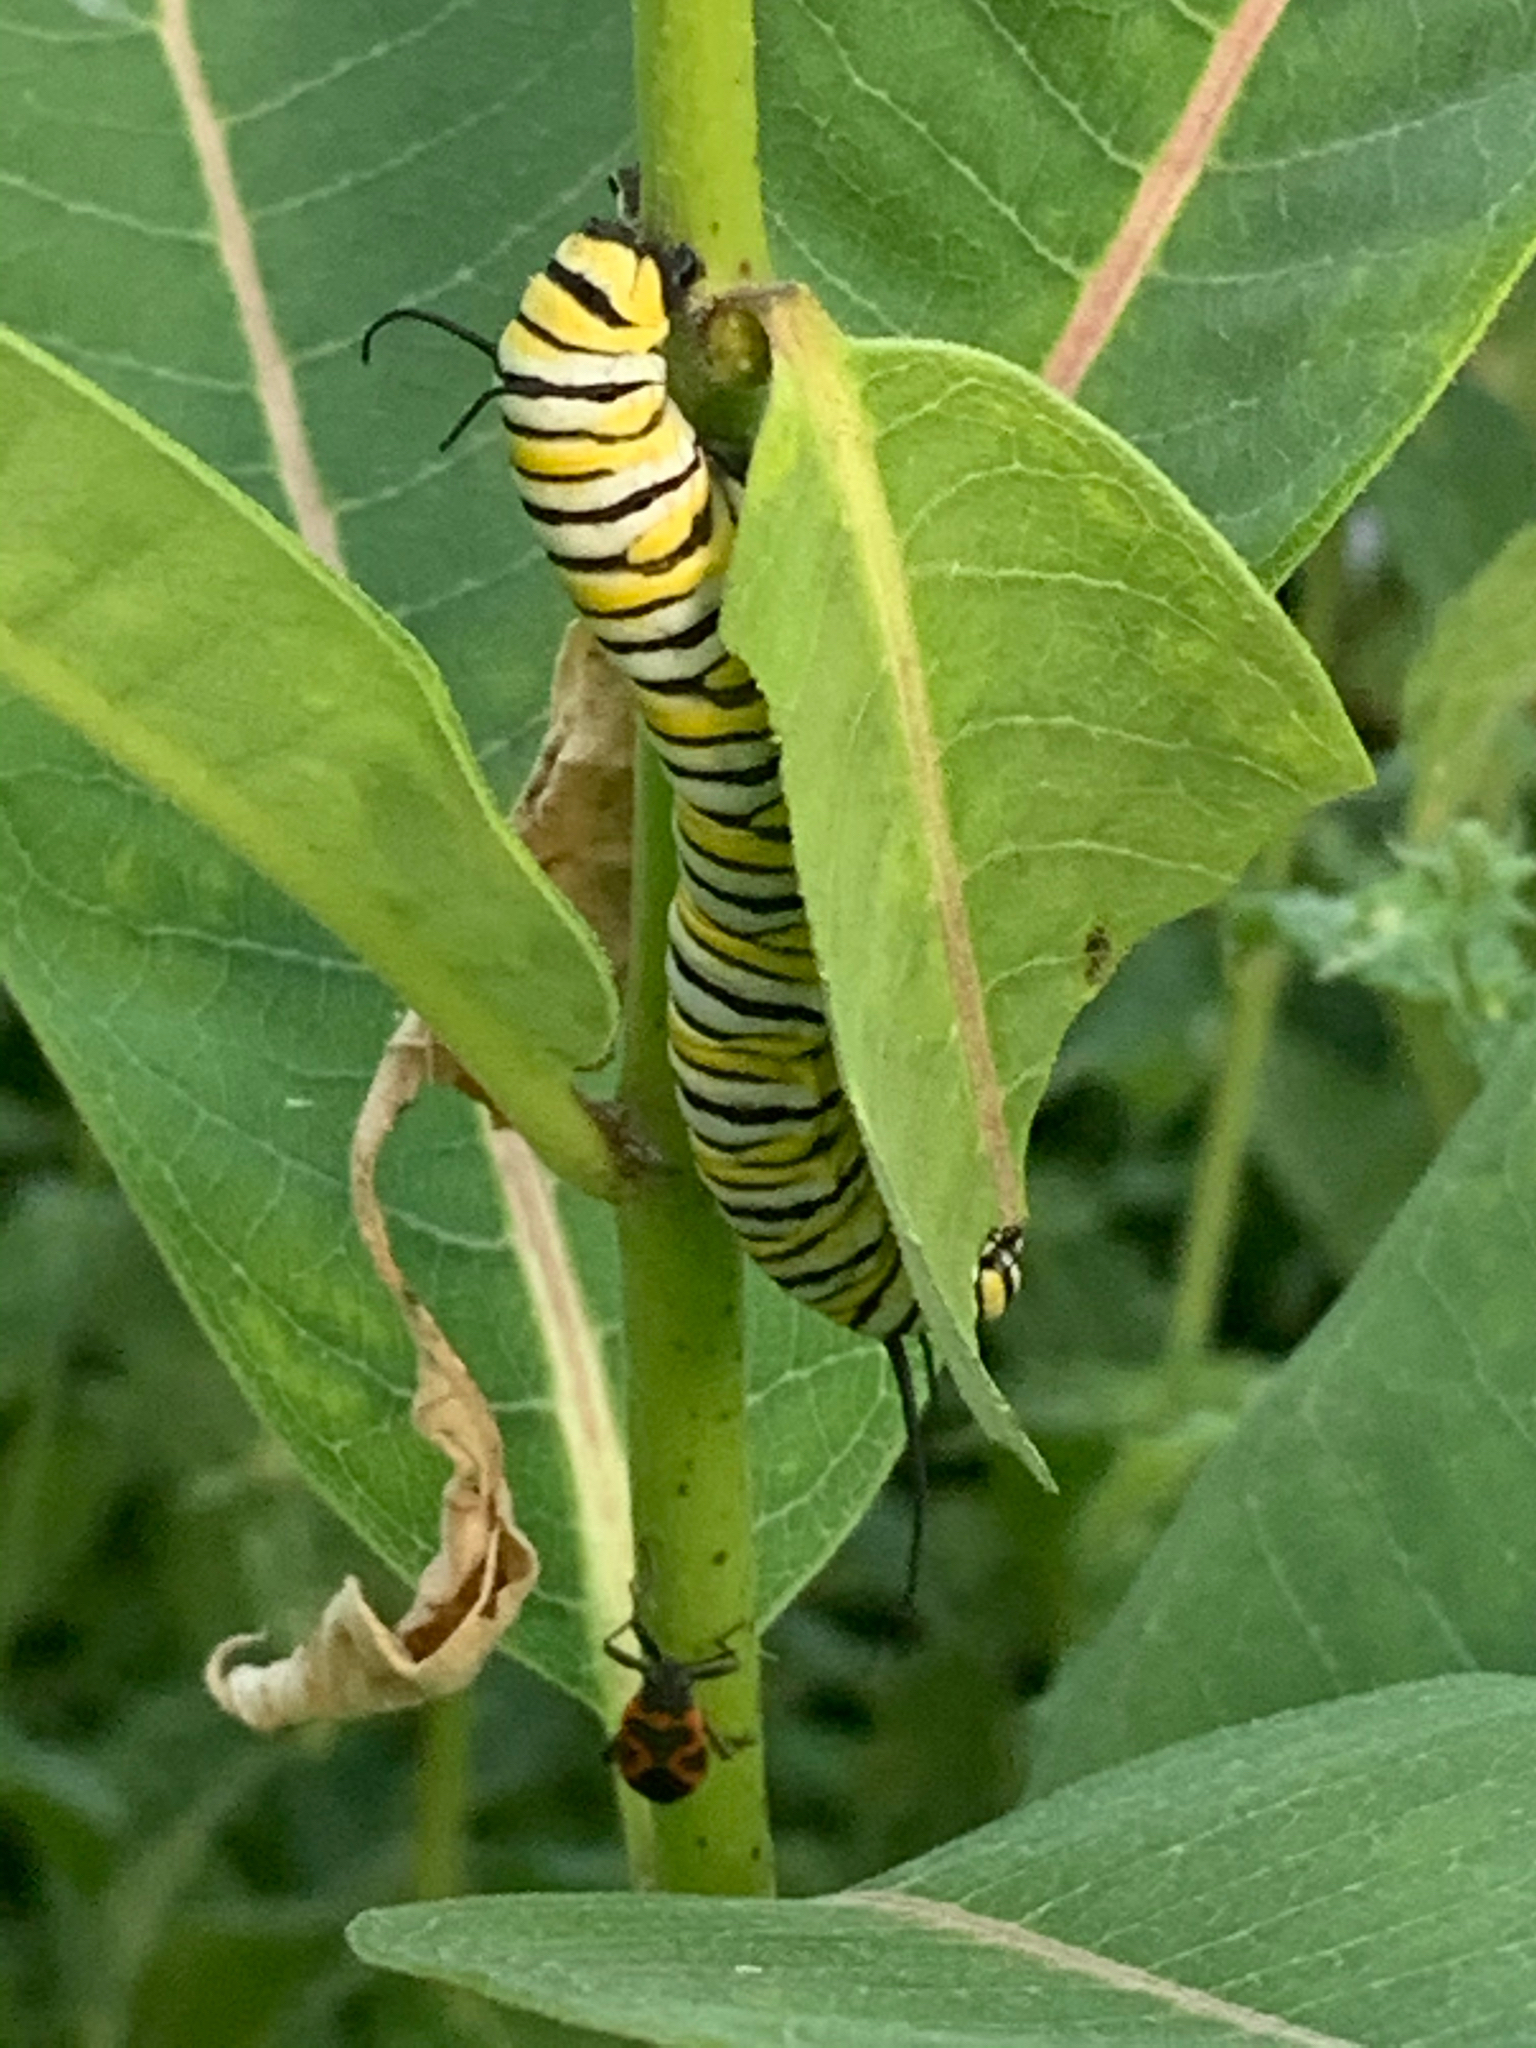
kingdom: Animalia
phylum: Arthropoda
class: Insecta
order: Lepidoptera
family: Nymphalidae
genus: Danaus
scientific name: Danaus plexippus
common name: Monarch
